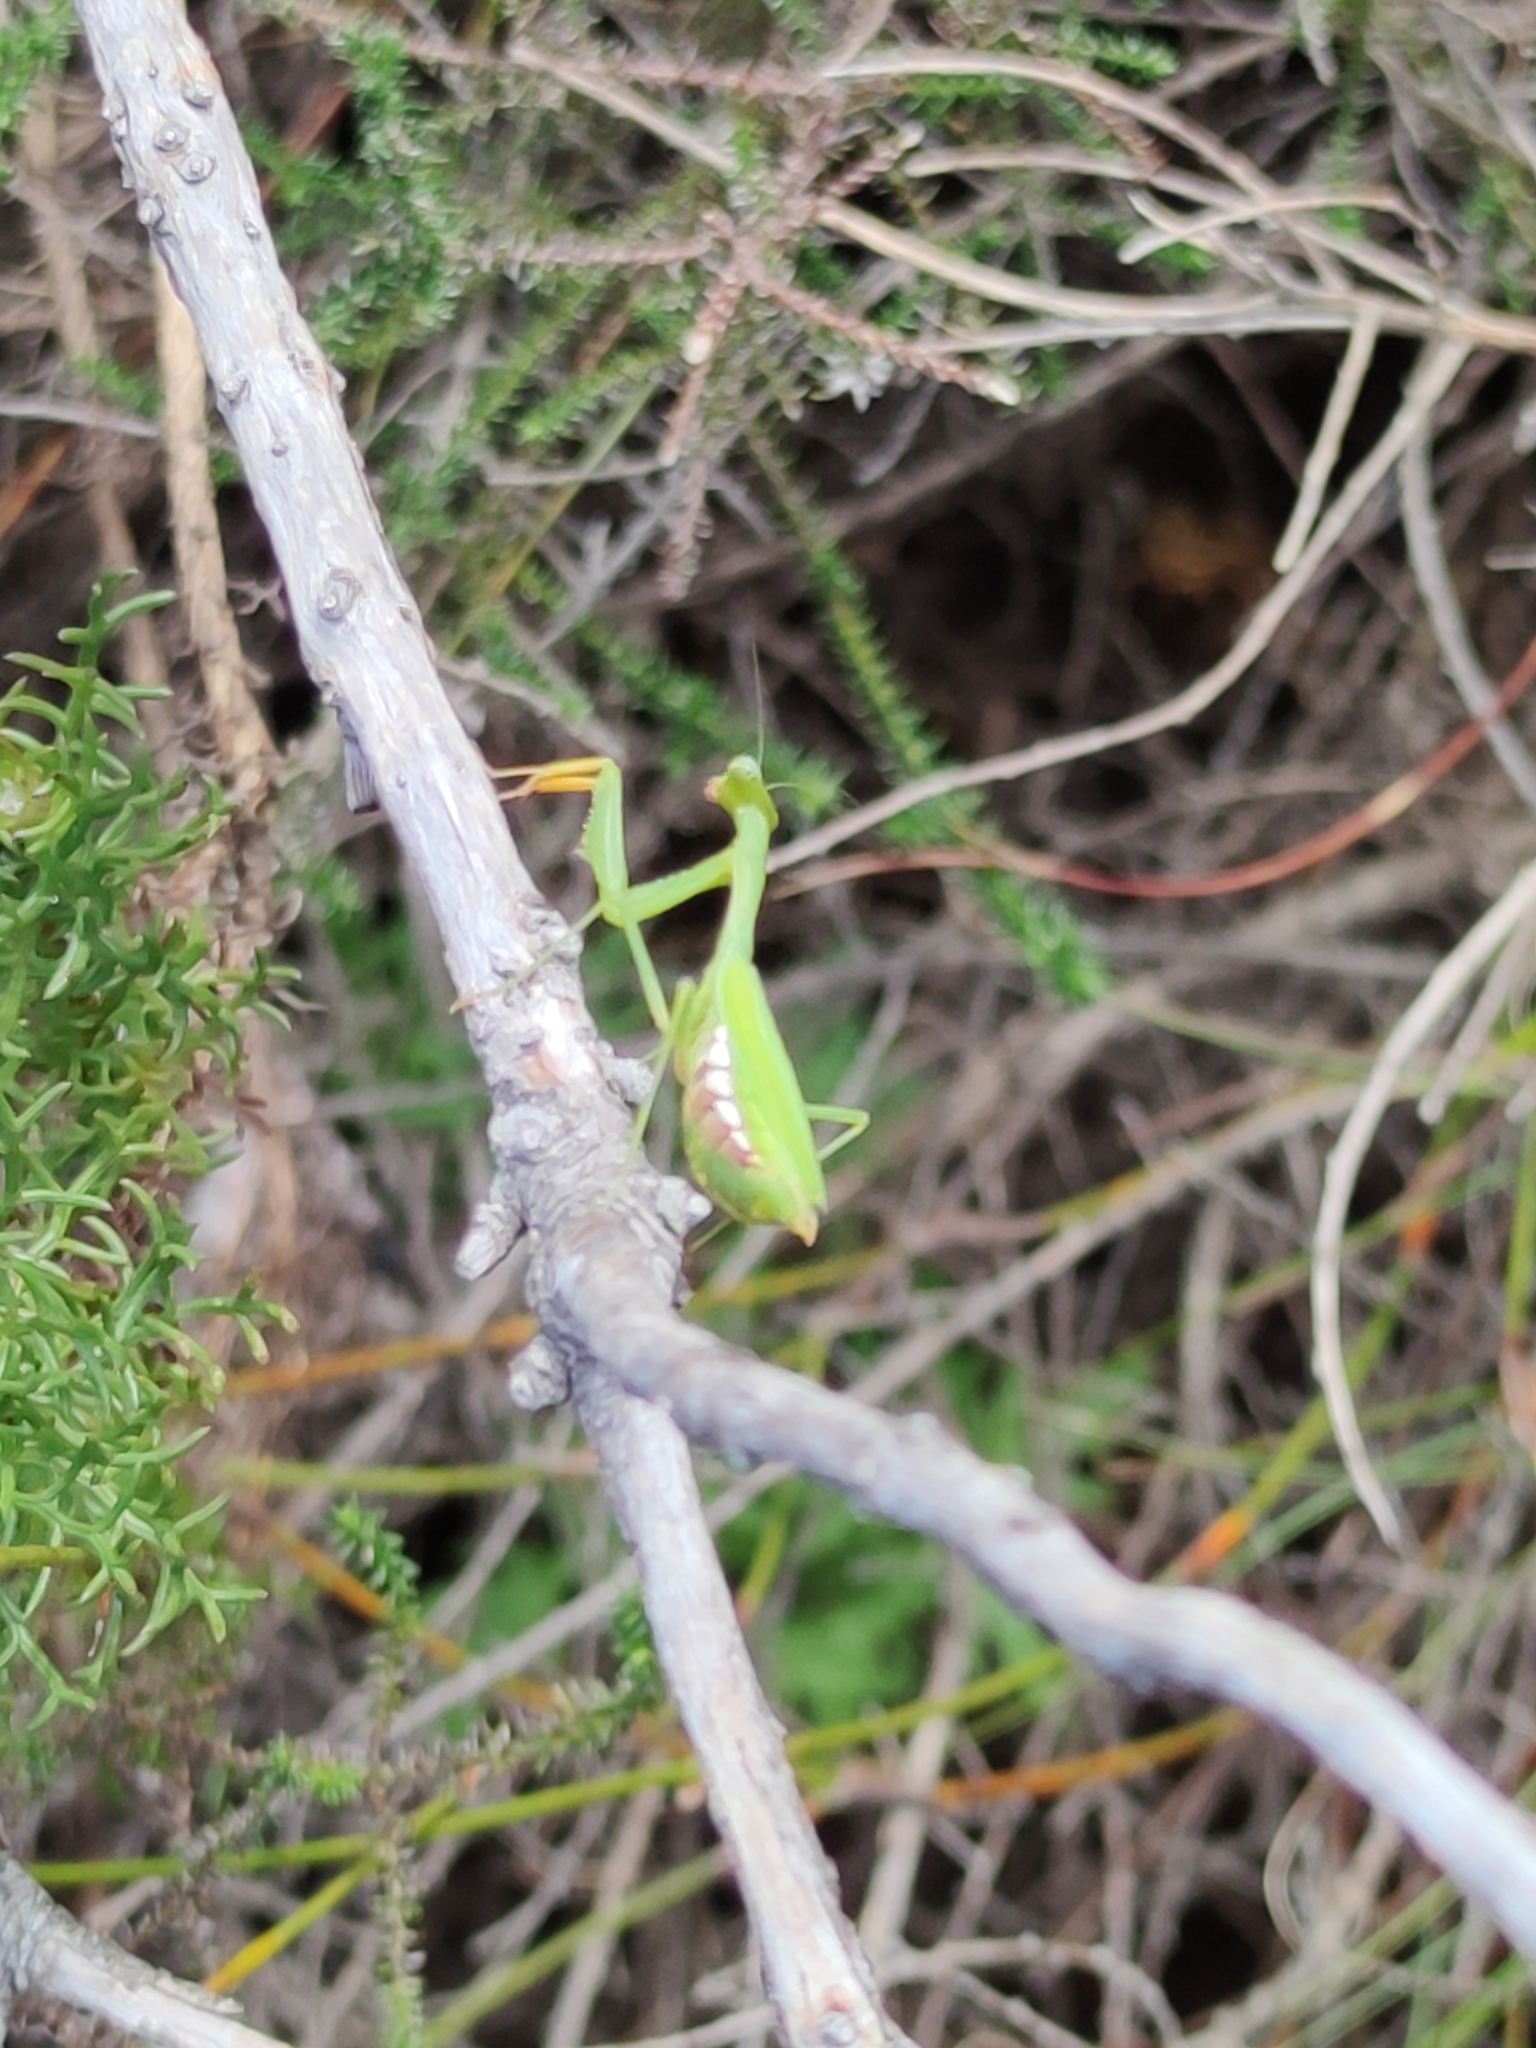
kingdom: Animalia
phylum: Arthropoda
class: Insecta
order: Mantodea
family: Miomantidae
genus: Miomantis
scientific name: Miomantis caffra
